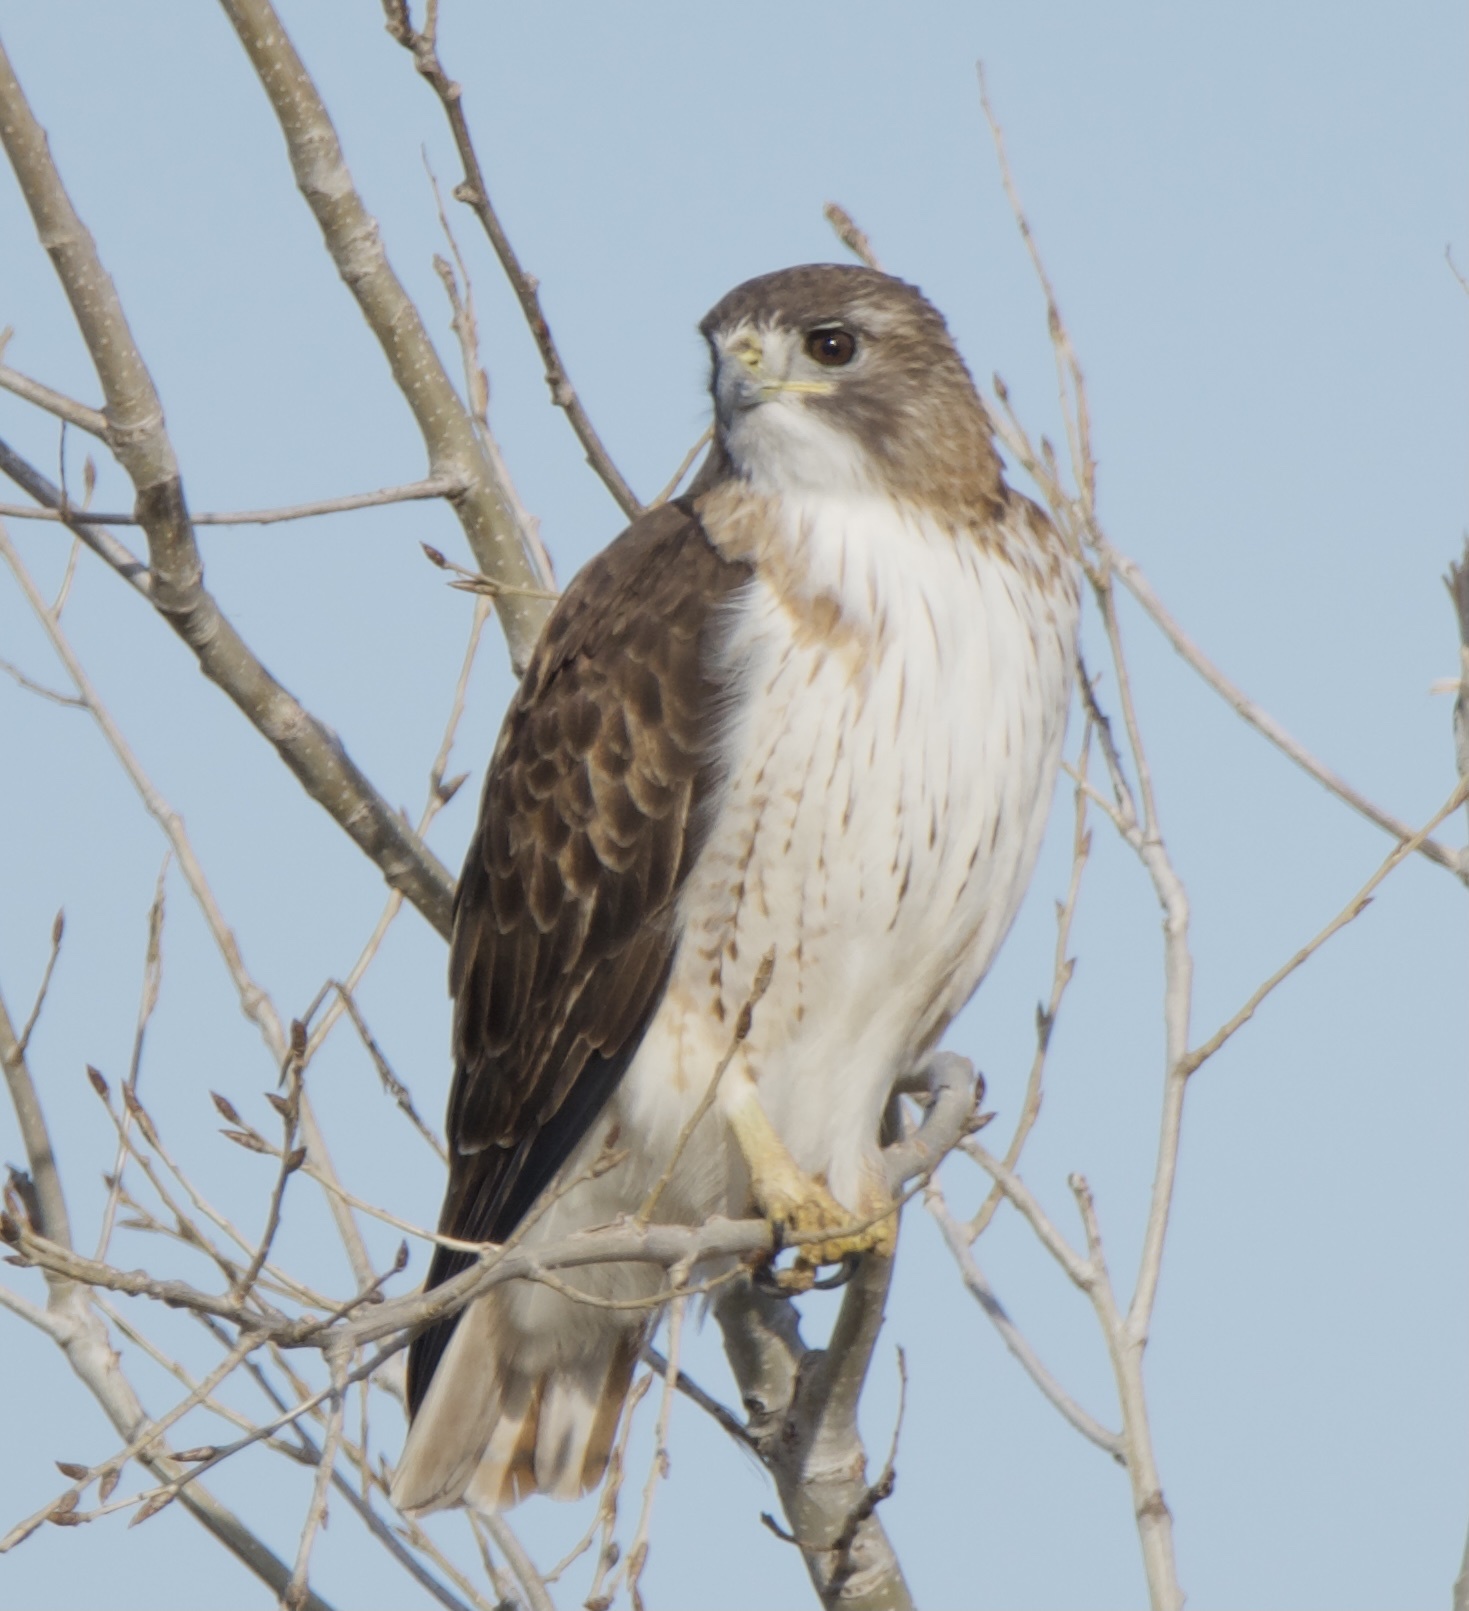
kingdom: Animalia
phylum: Chordata
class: Aves
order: Accipitriformes
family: Accipitridae
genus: Buteo
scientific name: Buteo jamaicensis
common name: Red-tailed hawk
